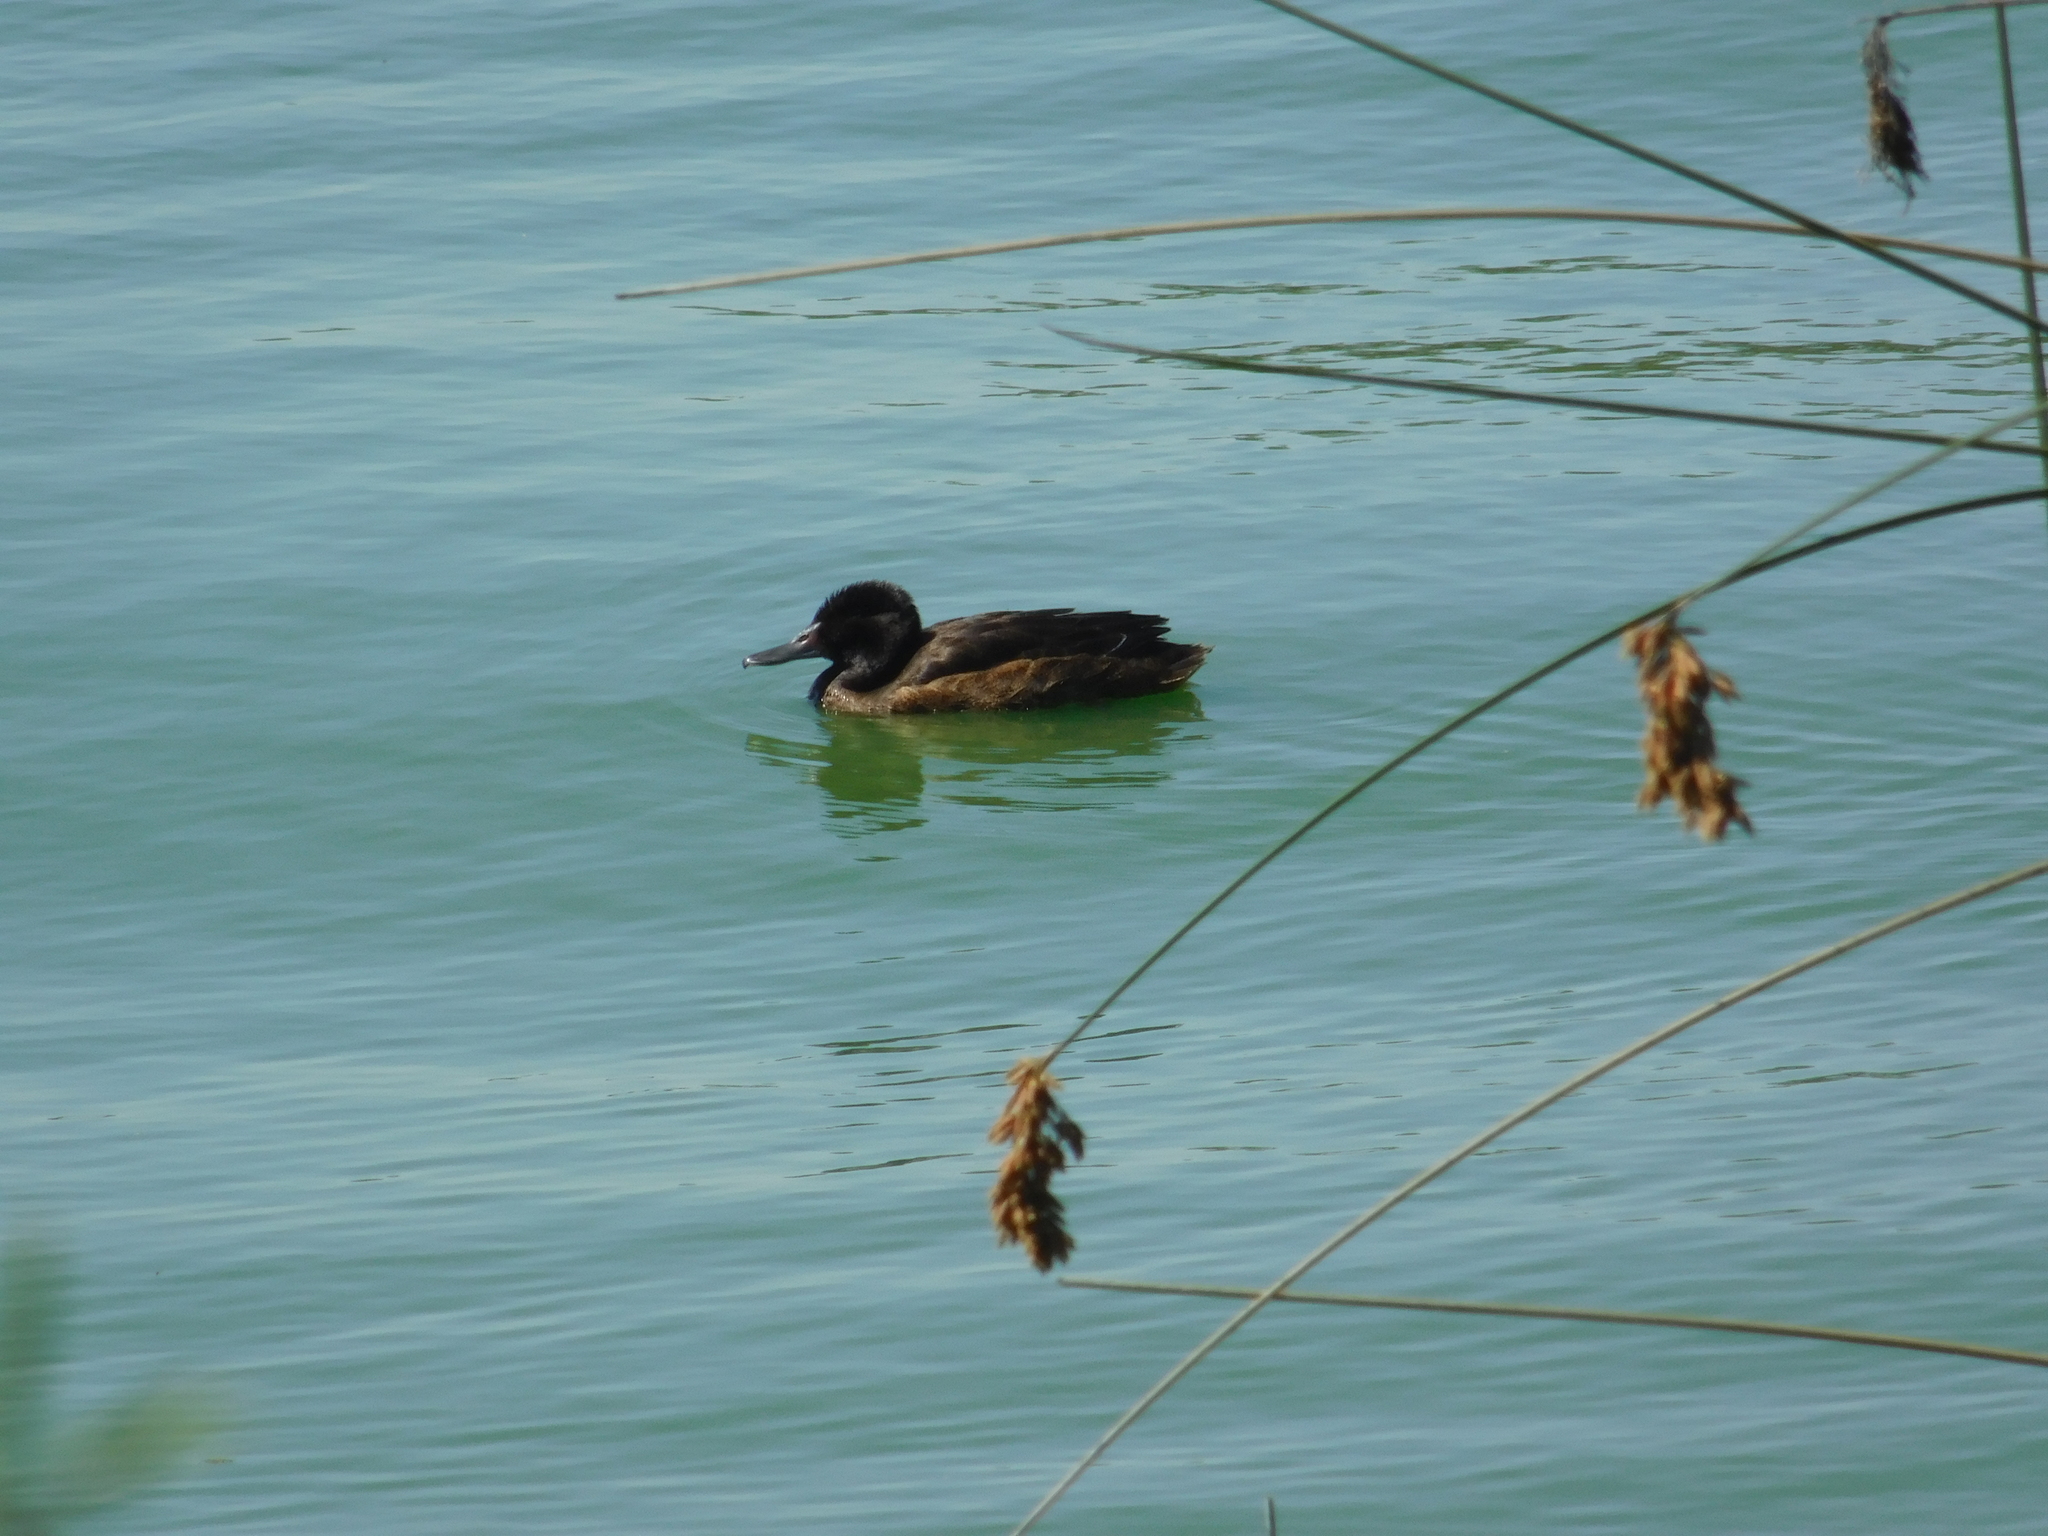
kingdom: Animalia
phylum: Chordata
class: Aves
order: Anseriformes
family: Anatidae
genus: Heteronetta
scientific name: Heteronetta atricapilla
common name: Black-headed duck
